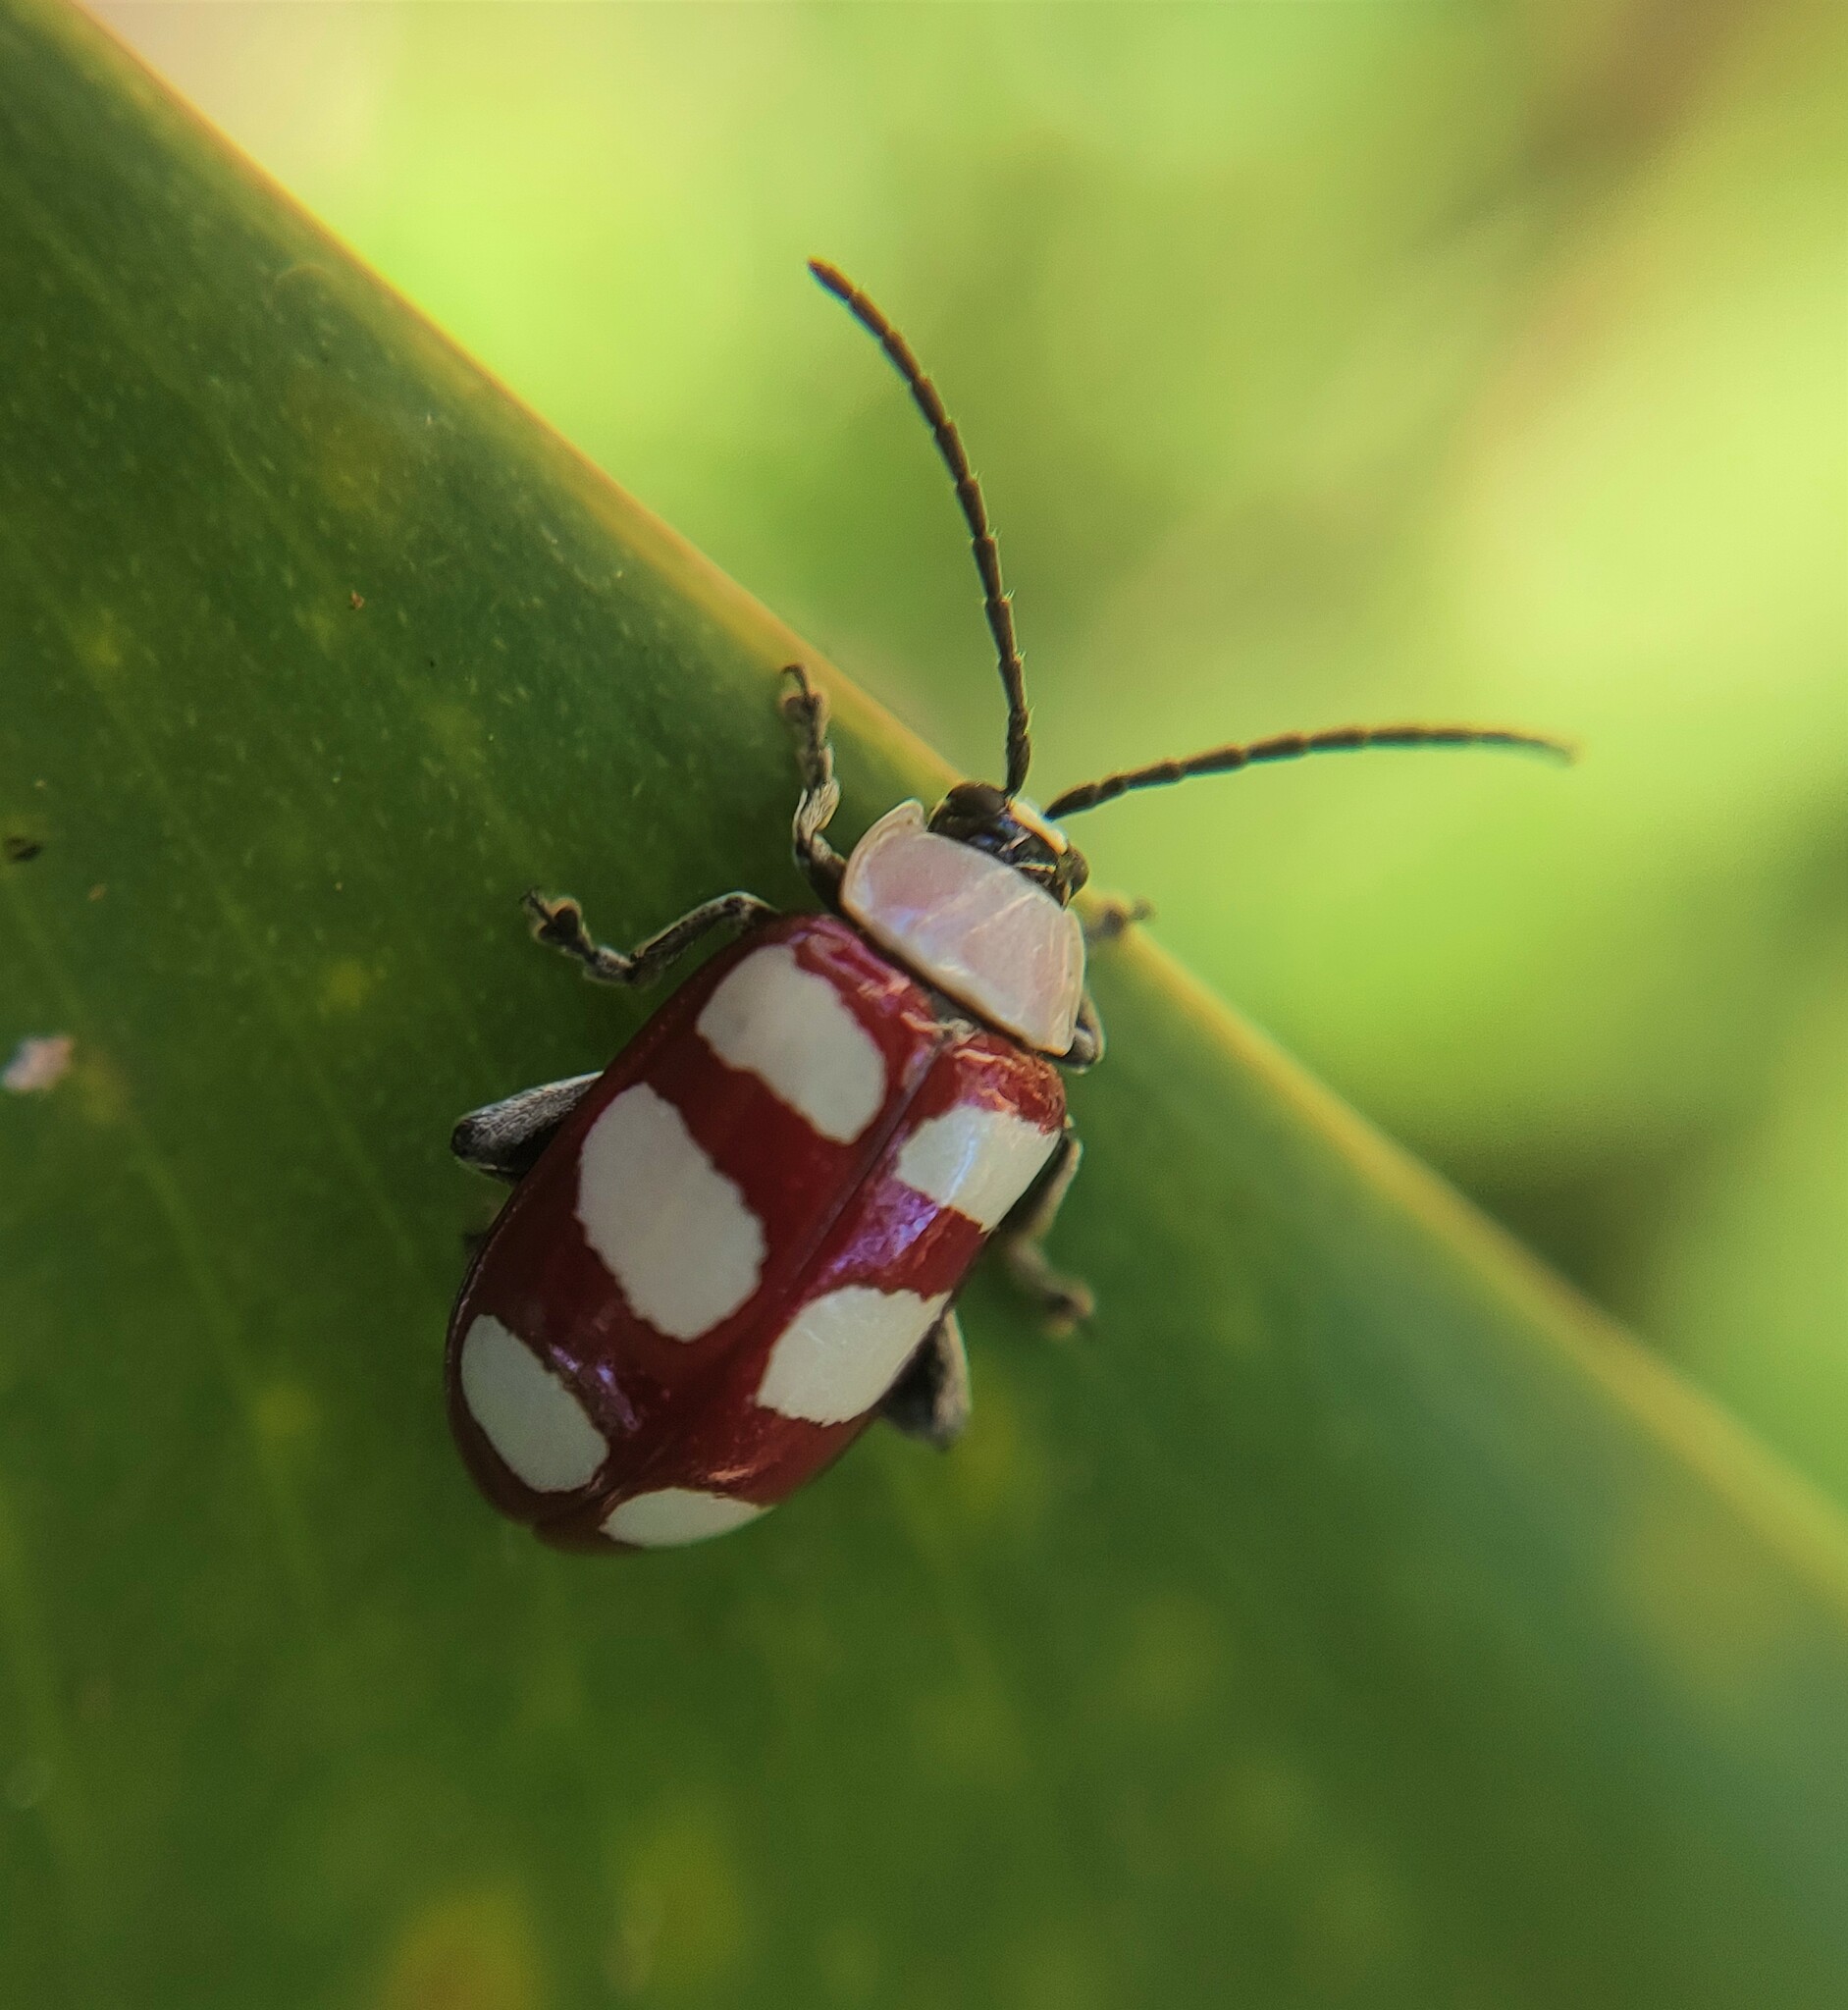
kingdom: Animalia
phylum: Arthropoda
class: Insecta
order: Coleoptera
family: Chrysomelidae
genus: Omophoita
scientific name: Omophoita personata
